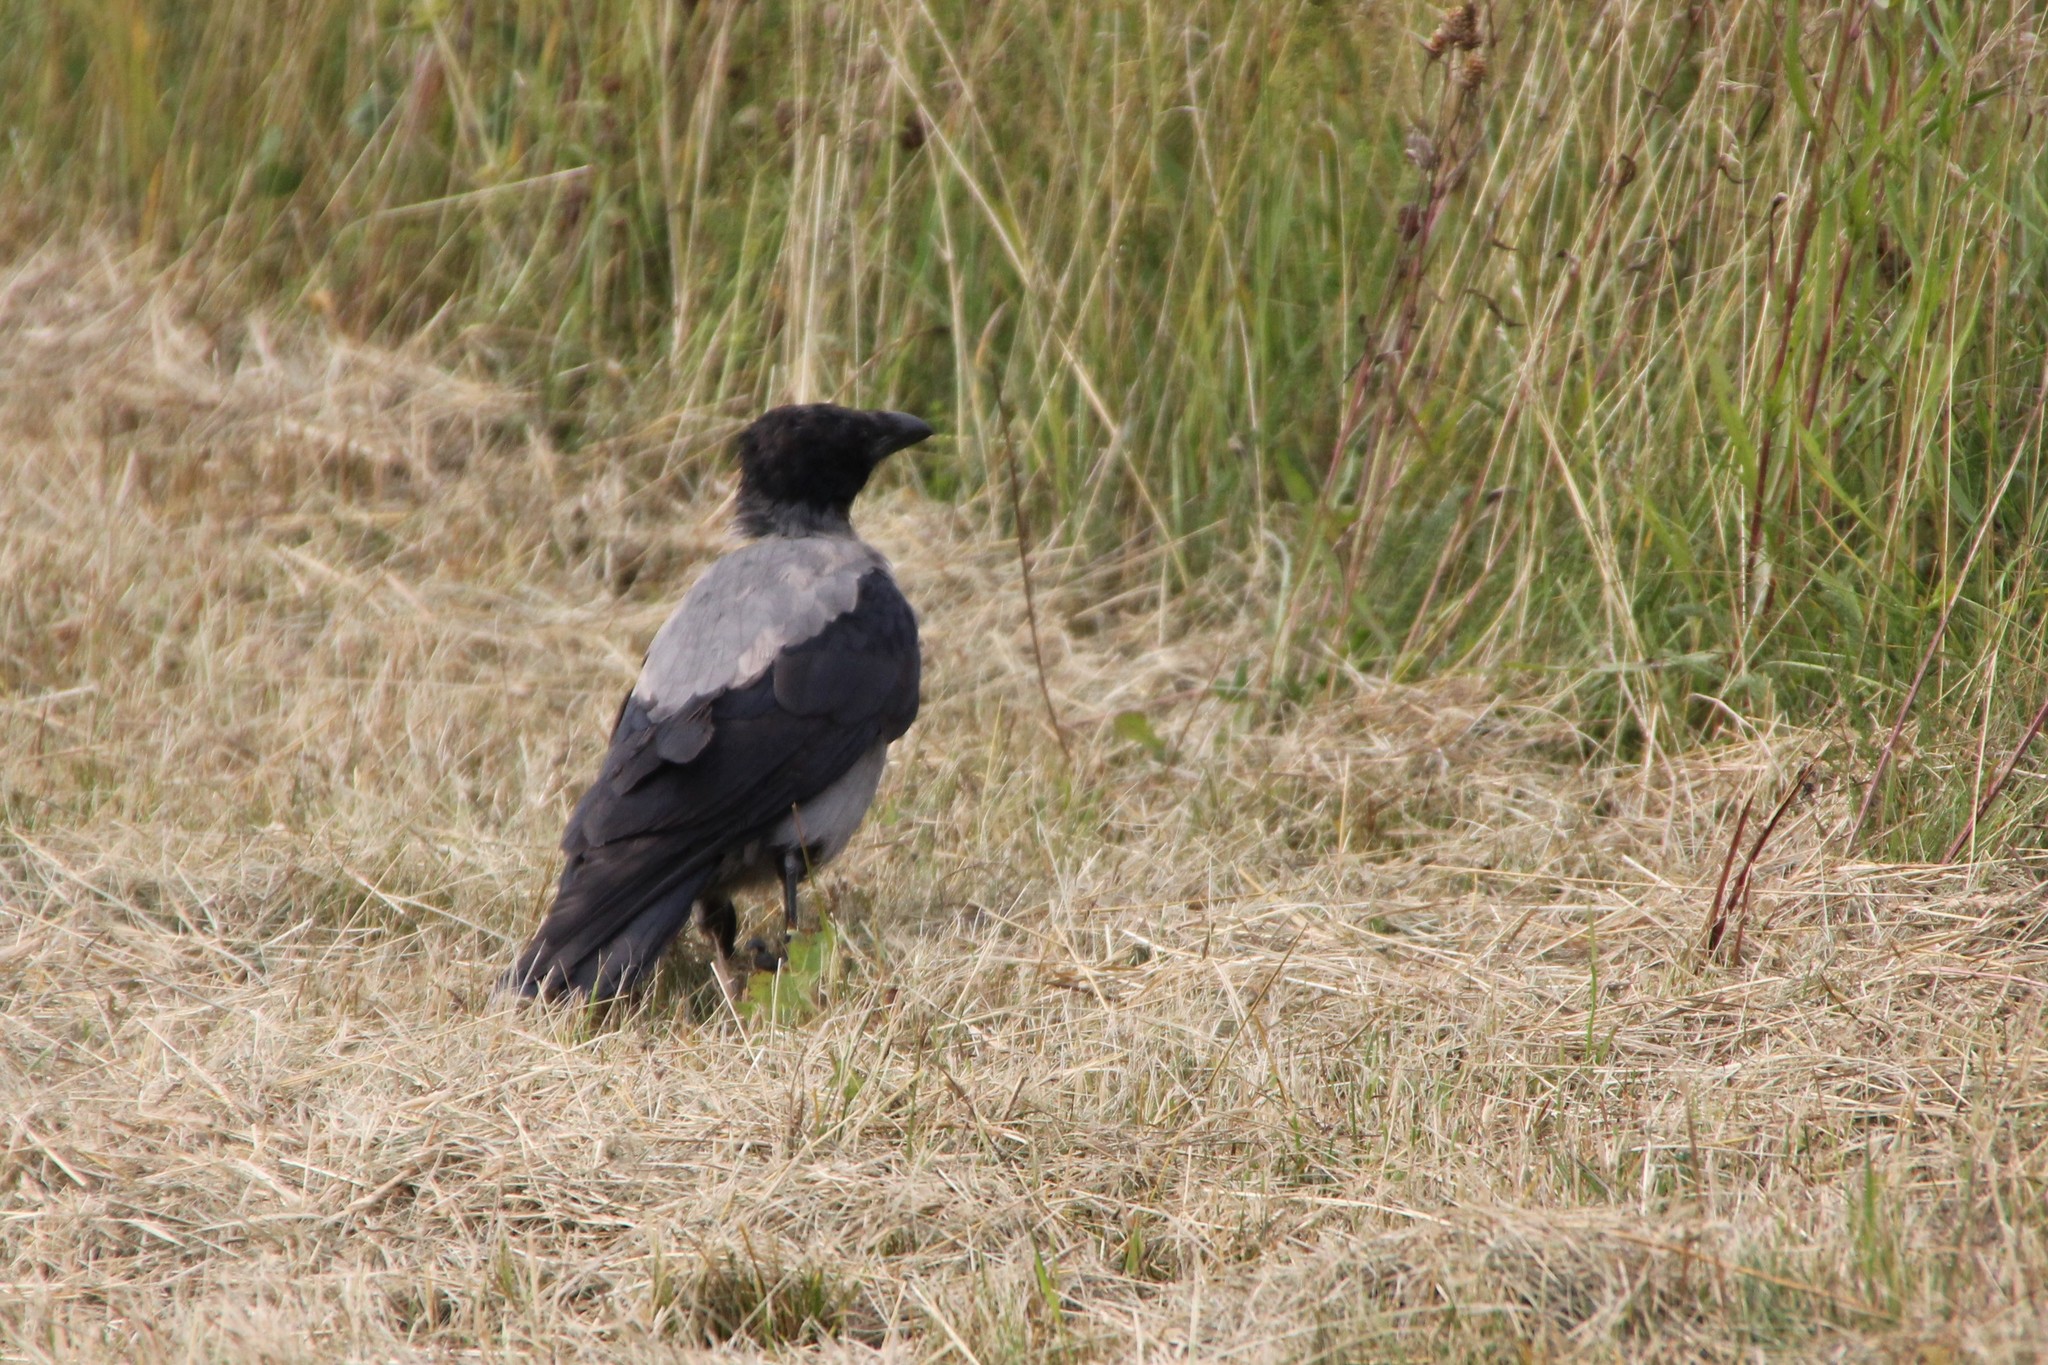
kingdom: Animalia
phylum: Chordata
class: Aves
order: Passeriformes
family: Corvidae
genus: Corvus
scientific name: Corvus cornix
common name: Hooded crow
